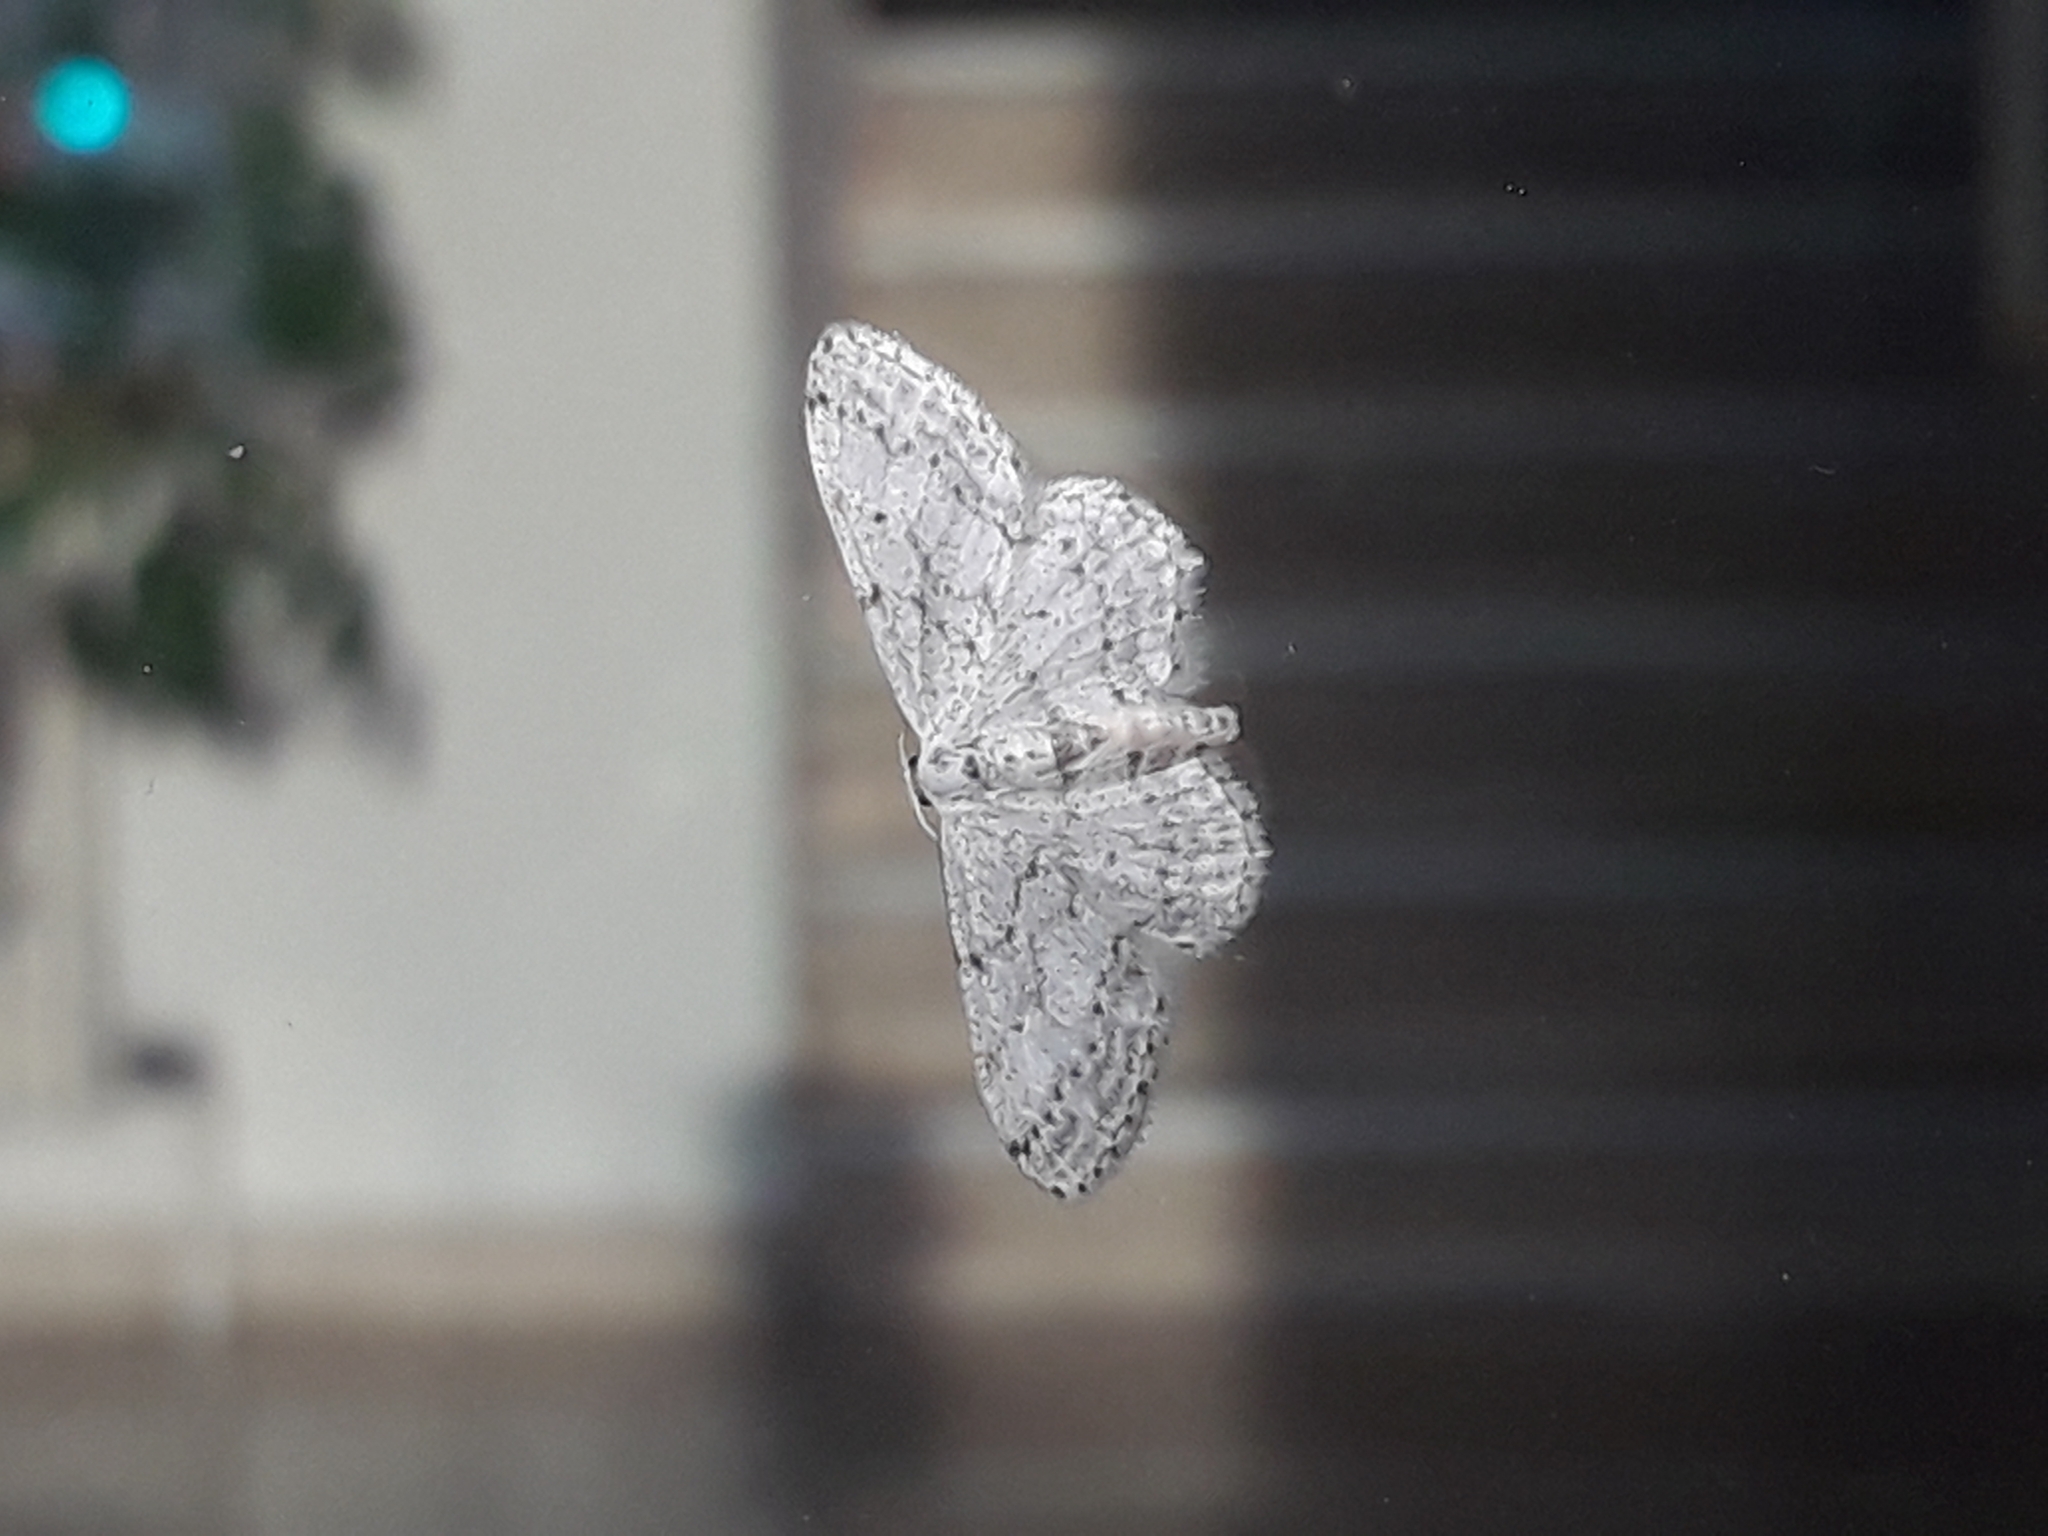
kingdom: Animalia
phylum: Arthropoda
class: Insecta
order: Lepidoptera
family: Geometridae
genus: Idaea
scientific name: Idaea seriata
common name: Small dusty wave
